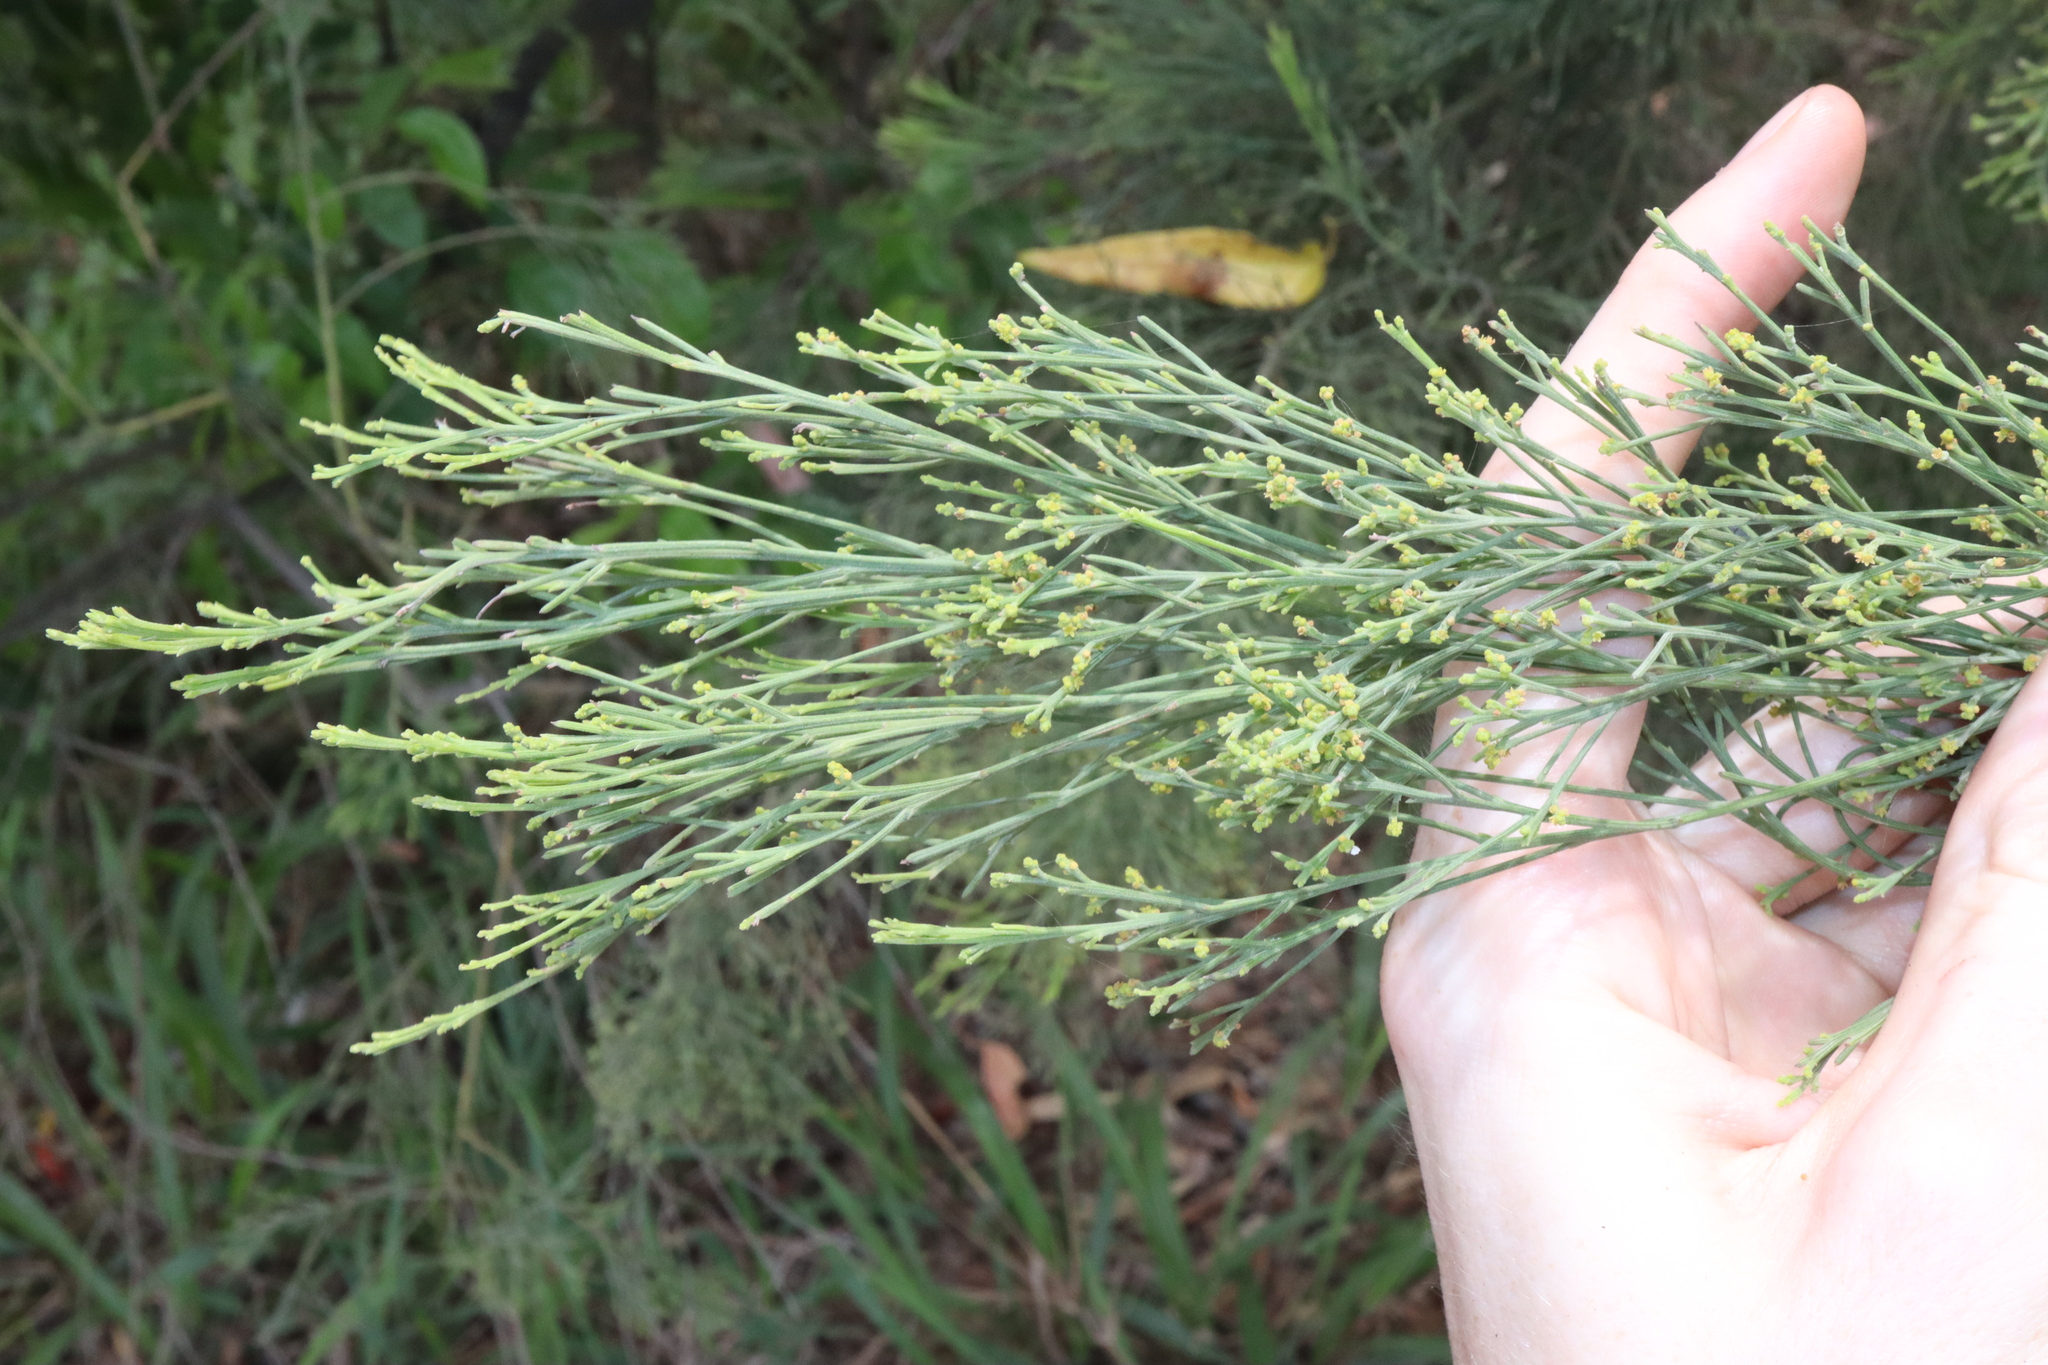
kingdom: Plantae
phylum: Tracheophyta
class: Magnoliopsida
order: Santalales
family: Santalaceae
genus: Exocarpos
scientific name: Exocarpos cupressiformis
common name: Cherry ballart
